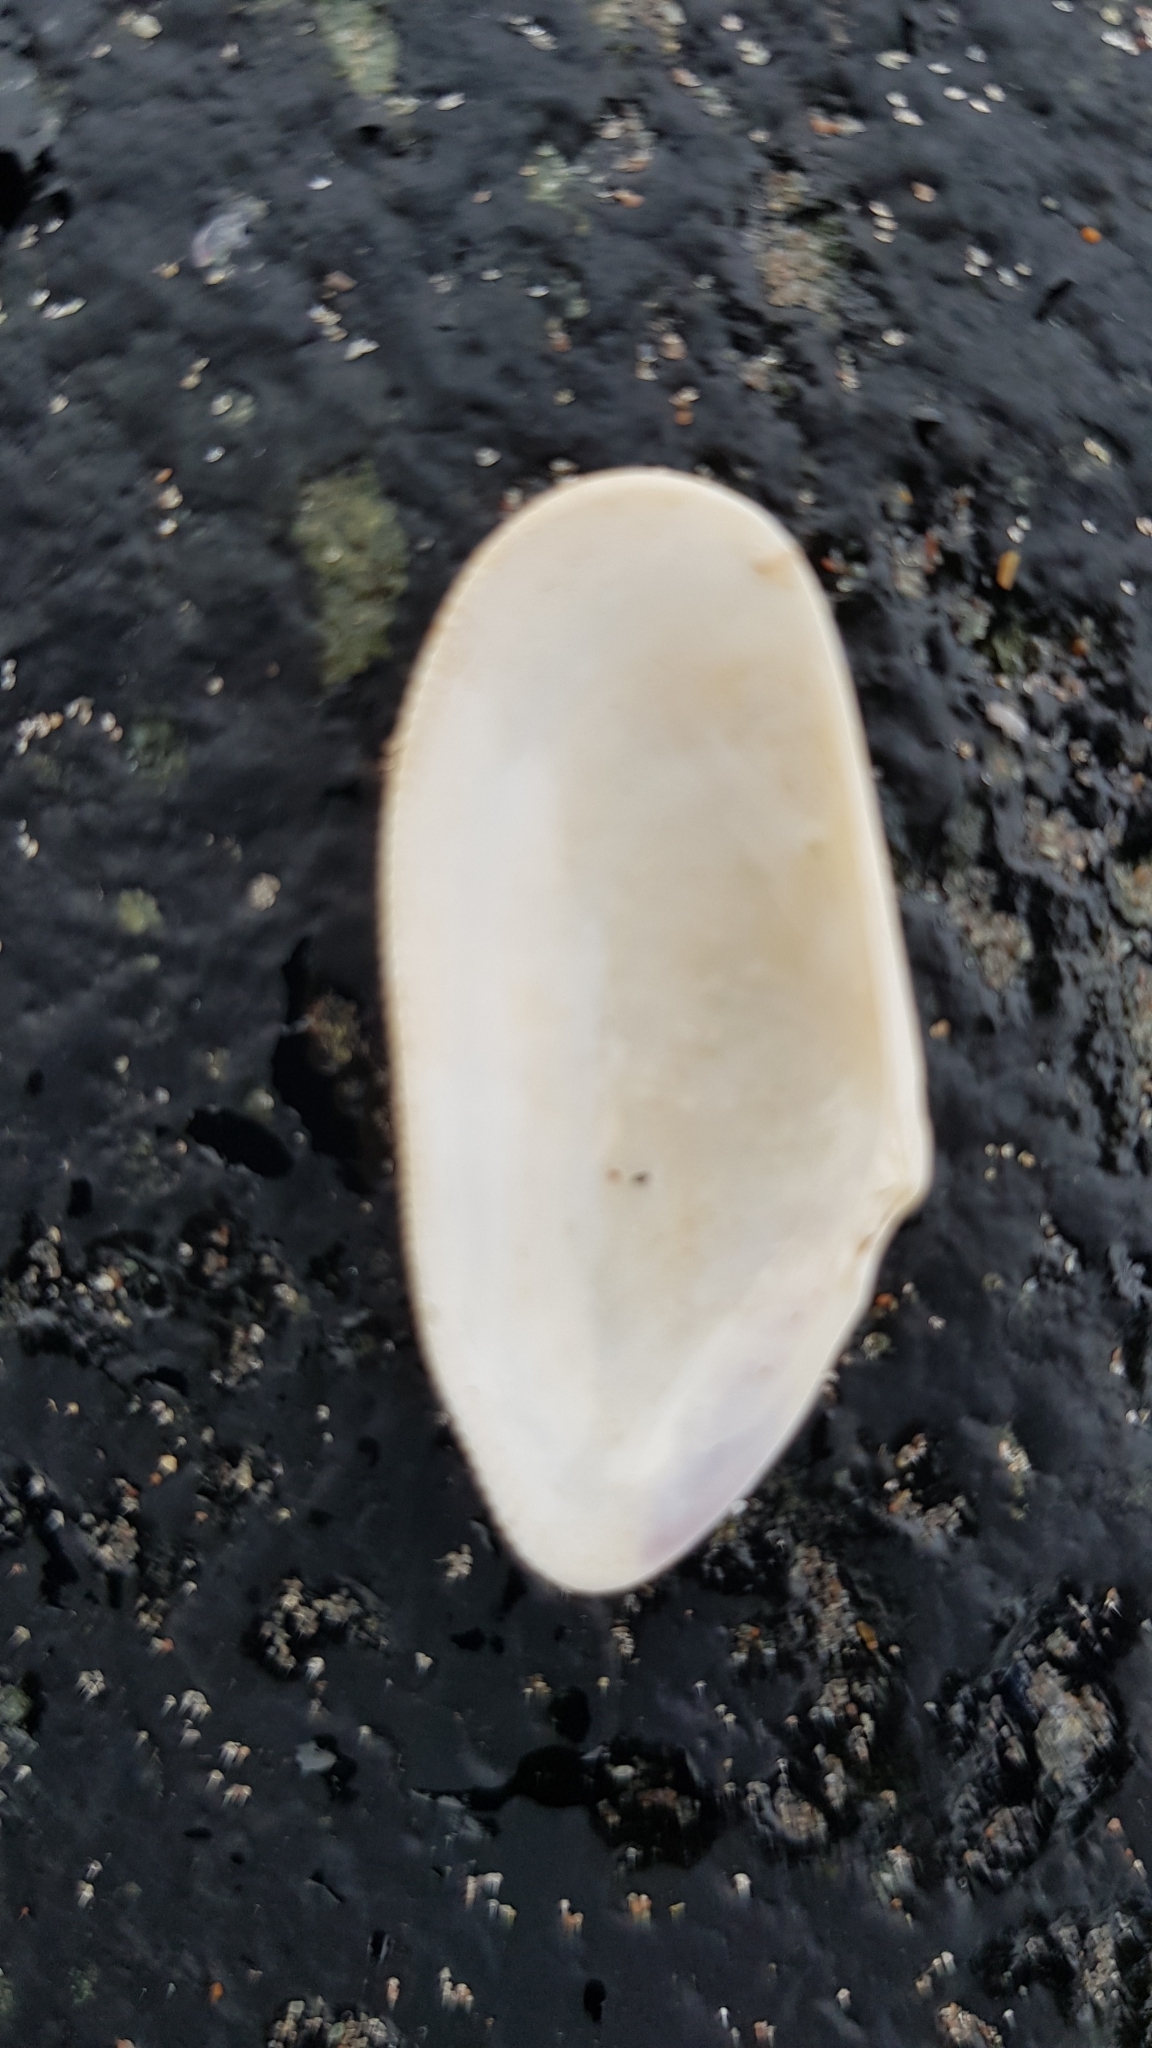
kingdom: Animalia
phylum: Mollusca
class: Bivalvia
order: Cardiida
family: Donacidae
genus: Donax
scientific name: Donax vittatus
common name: Banded wedge-shell
